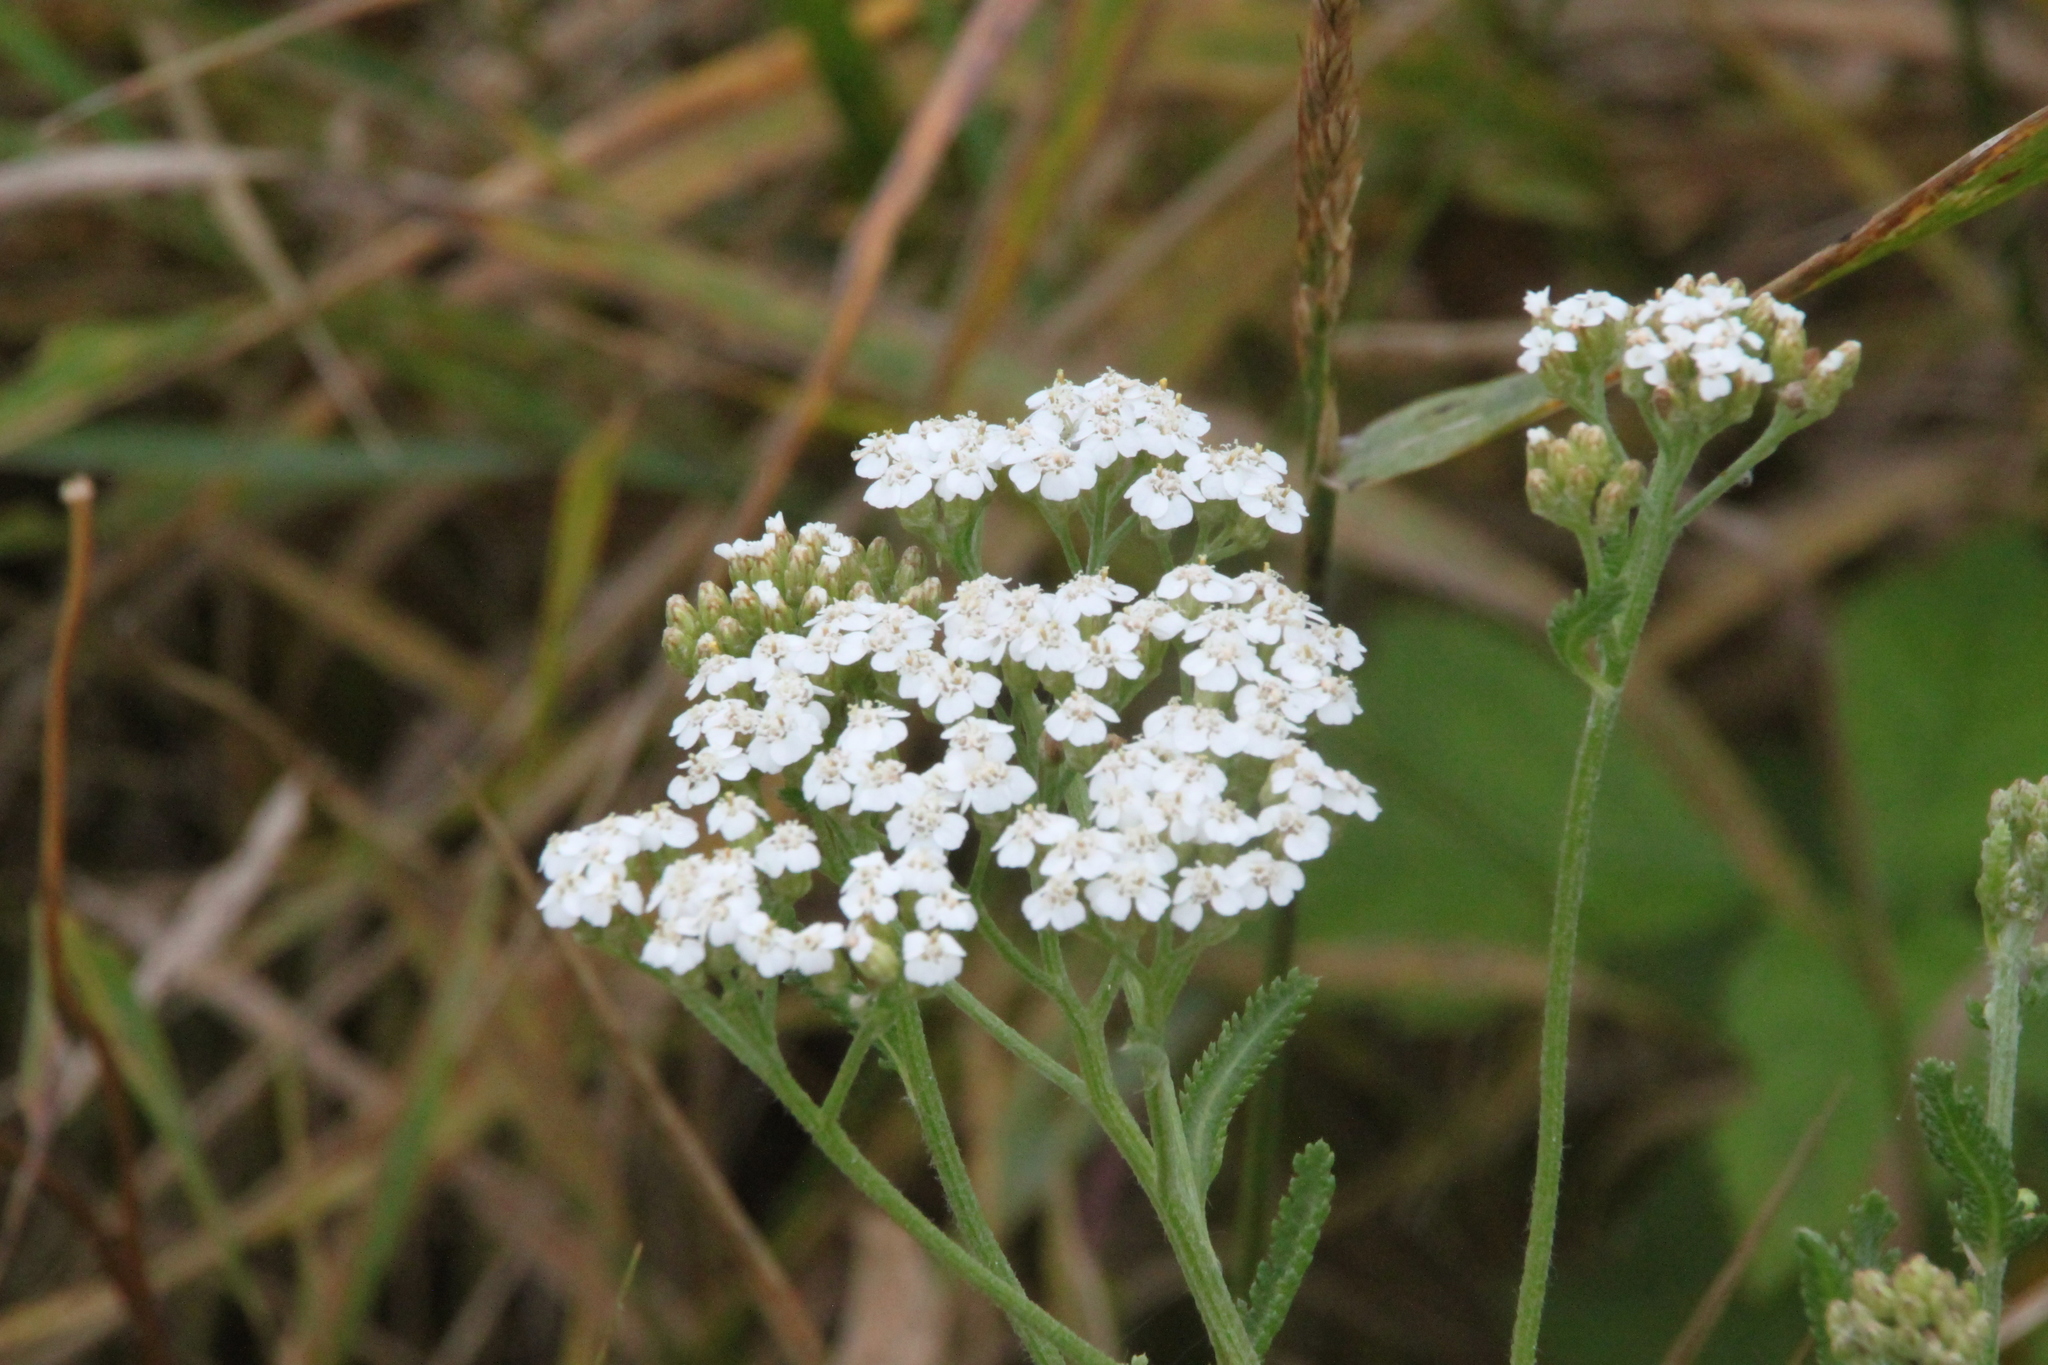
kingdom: Plantae
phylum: Tracheophyta
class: Magnoliopsida
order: Asterales
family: Asteraceae
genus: Achillea
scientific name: Achillea millefolium
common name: Yarrow
